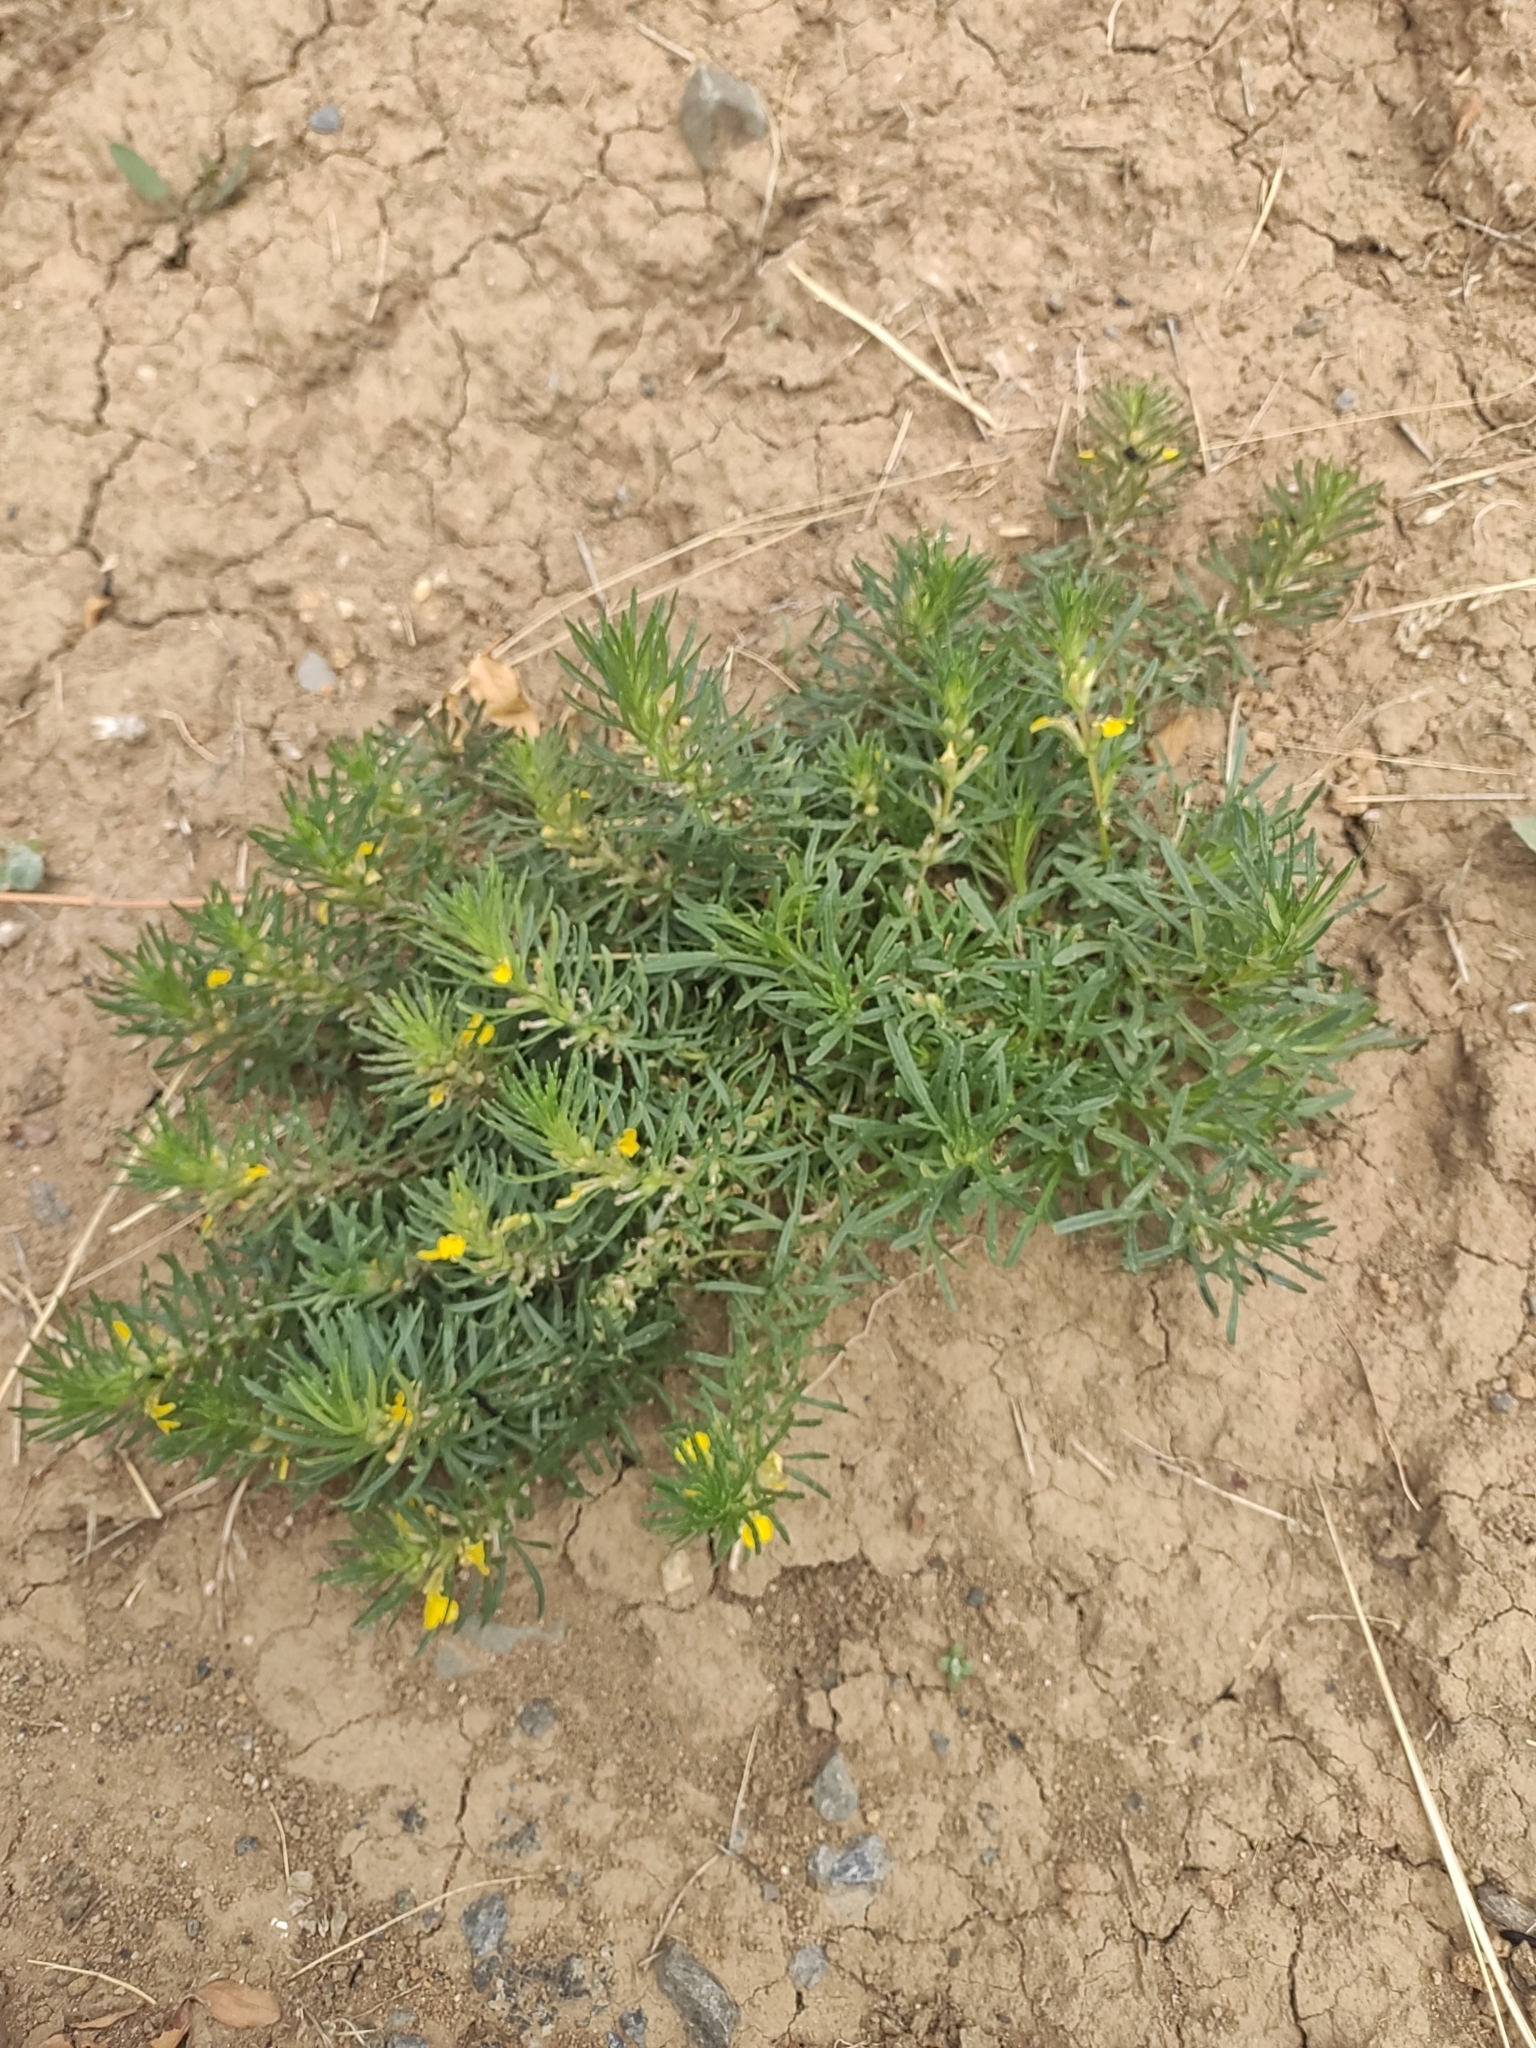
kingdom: Plantae
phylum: Tracheophyta
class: Magnoliopsida
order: Lamiales
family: Lamiaceae
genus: Ajuga
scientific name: Ajuga chamaepitys
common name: Ground-pine
